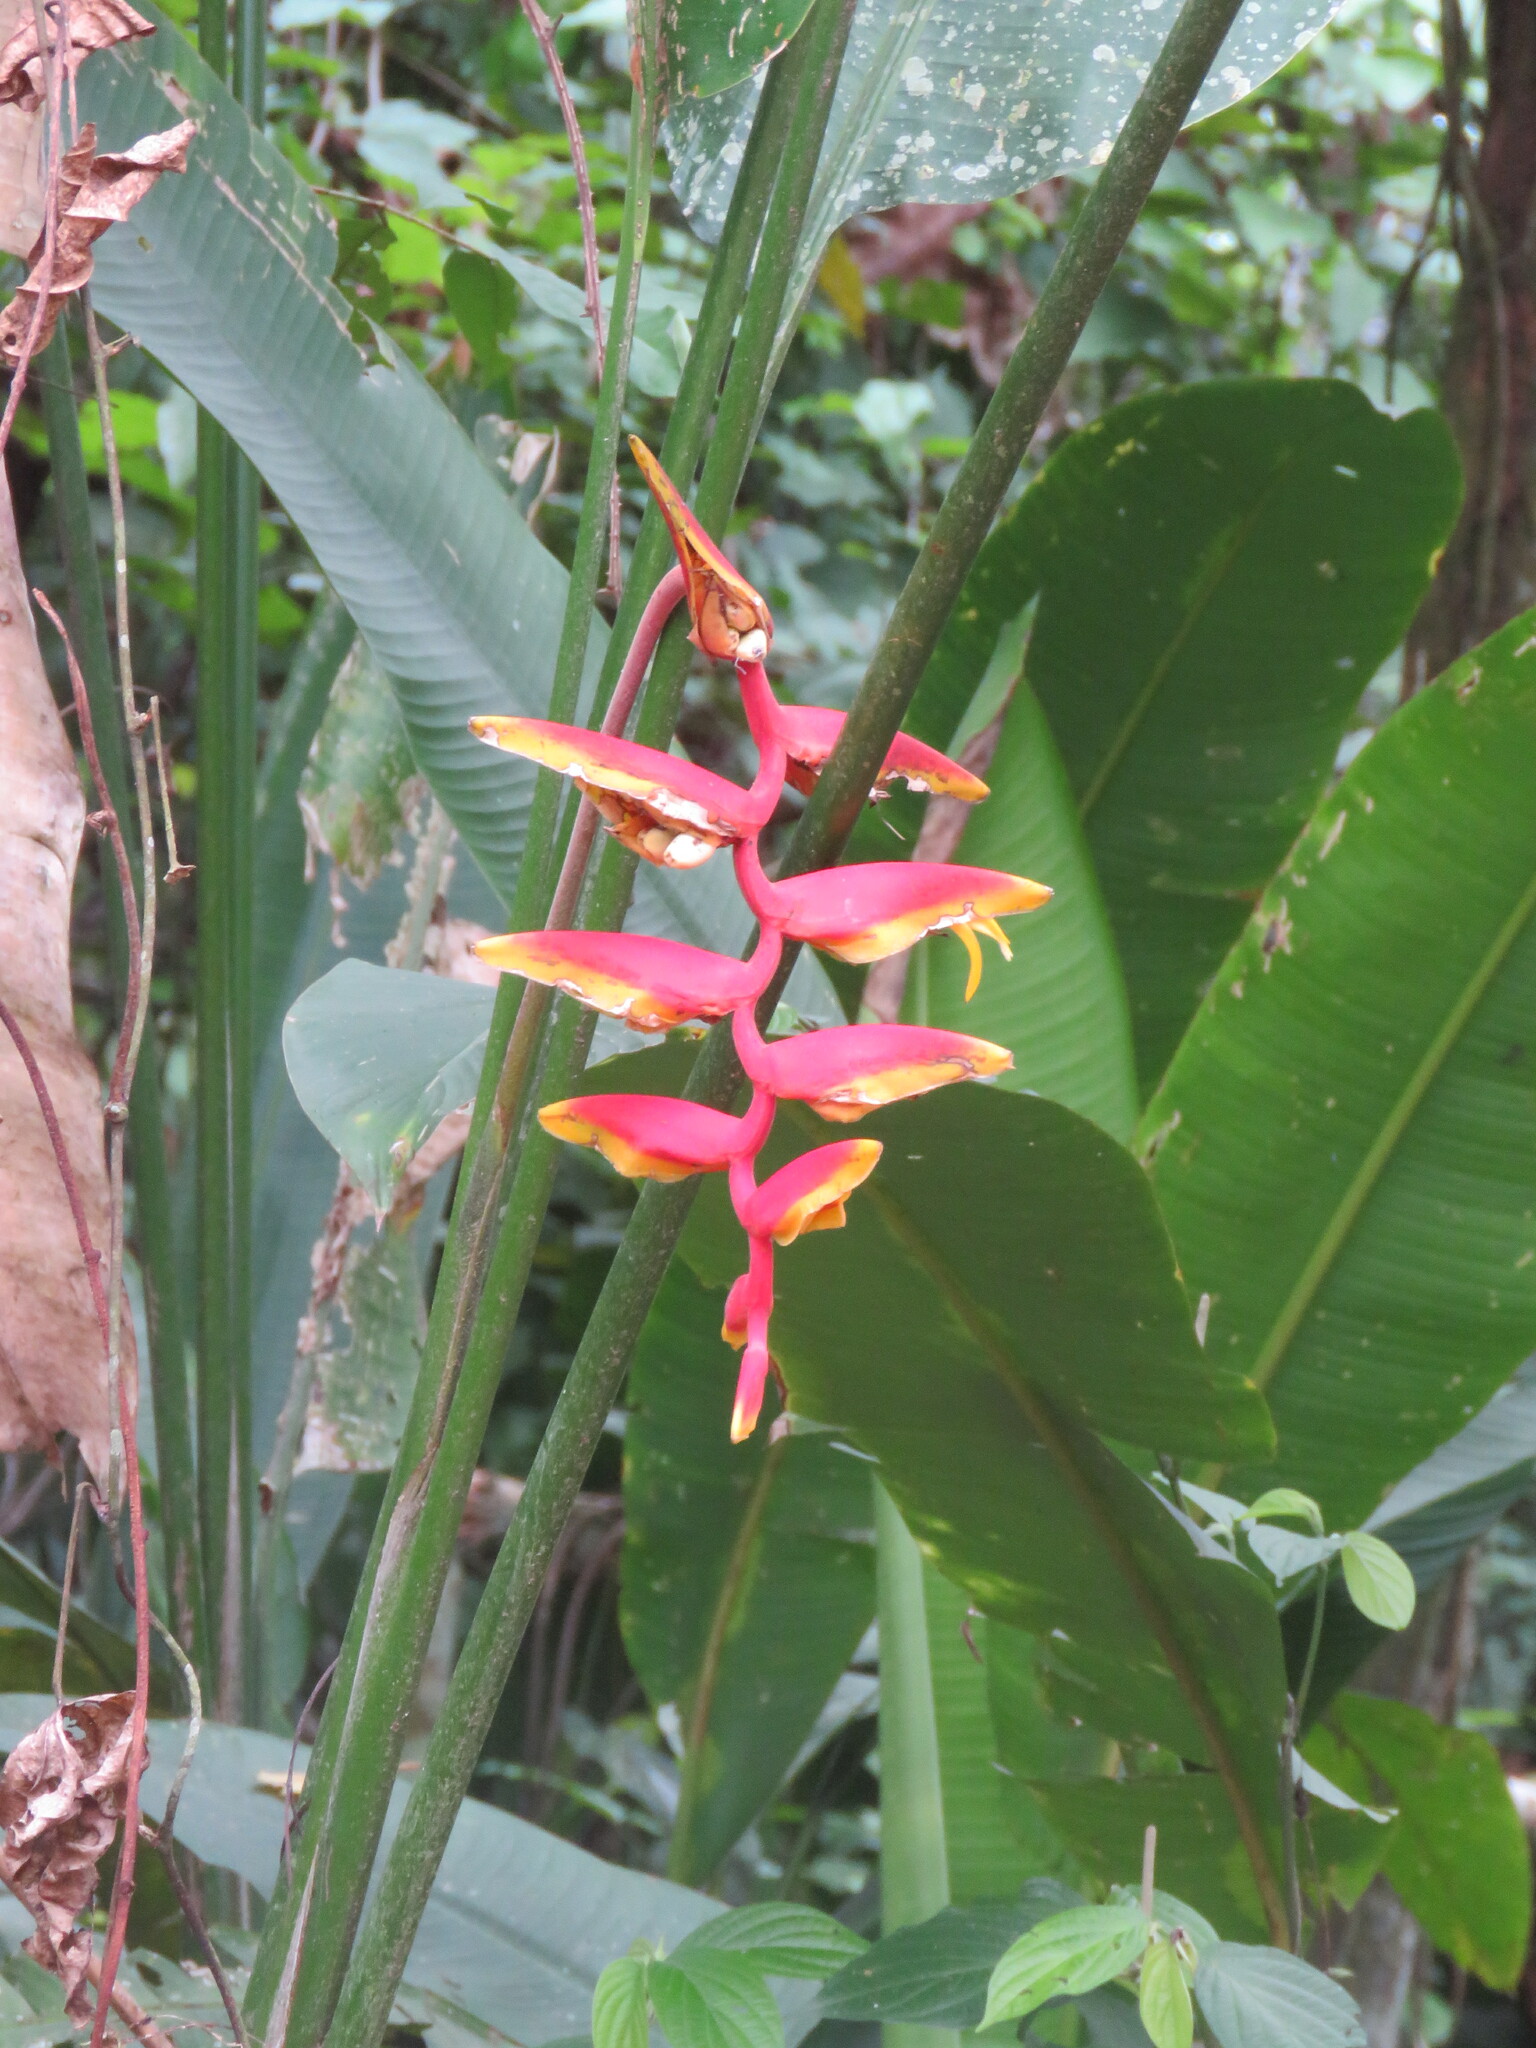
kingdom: Plantae
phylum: Tracheophyta
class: Liliopsida
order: Zingiberales
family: Heliconiaceae
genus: Heliconia
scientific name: Heliconia marginata
